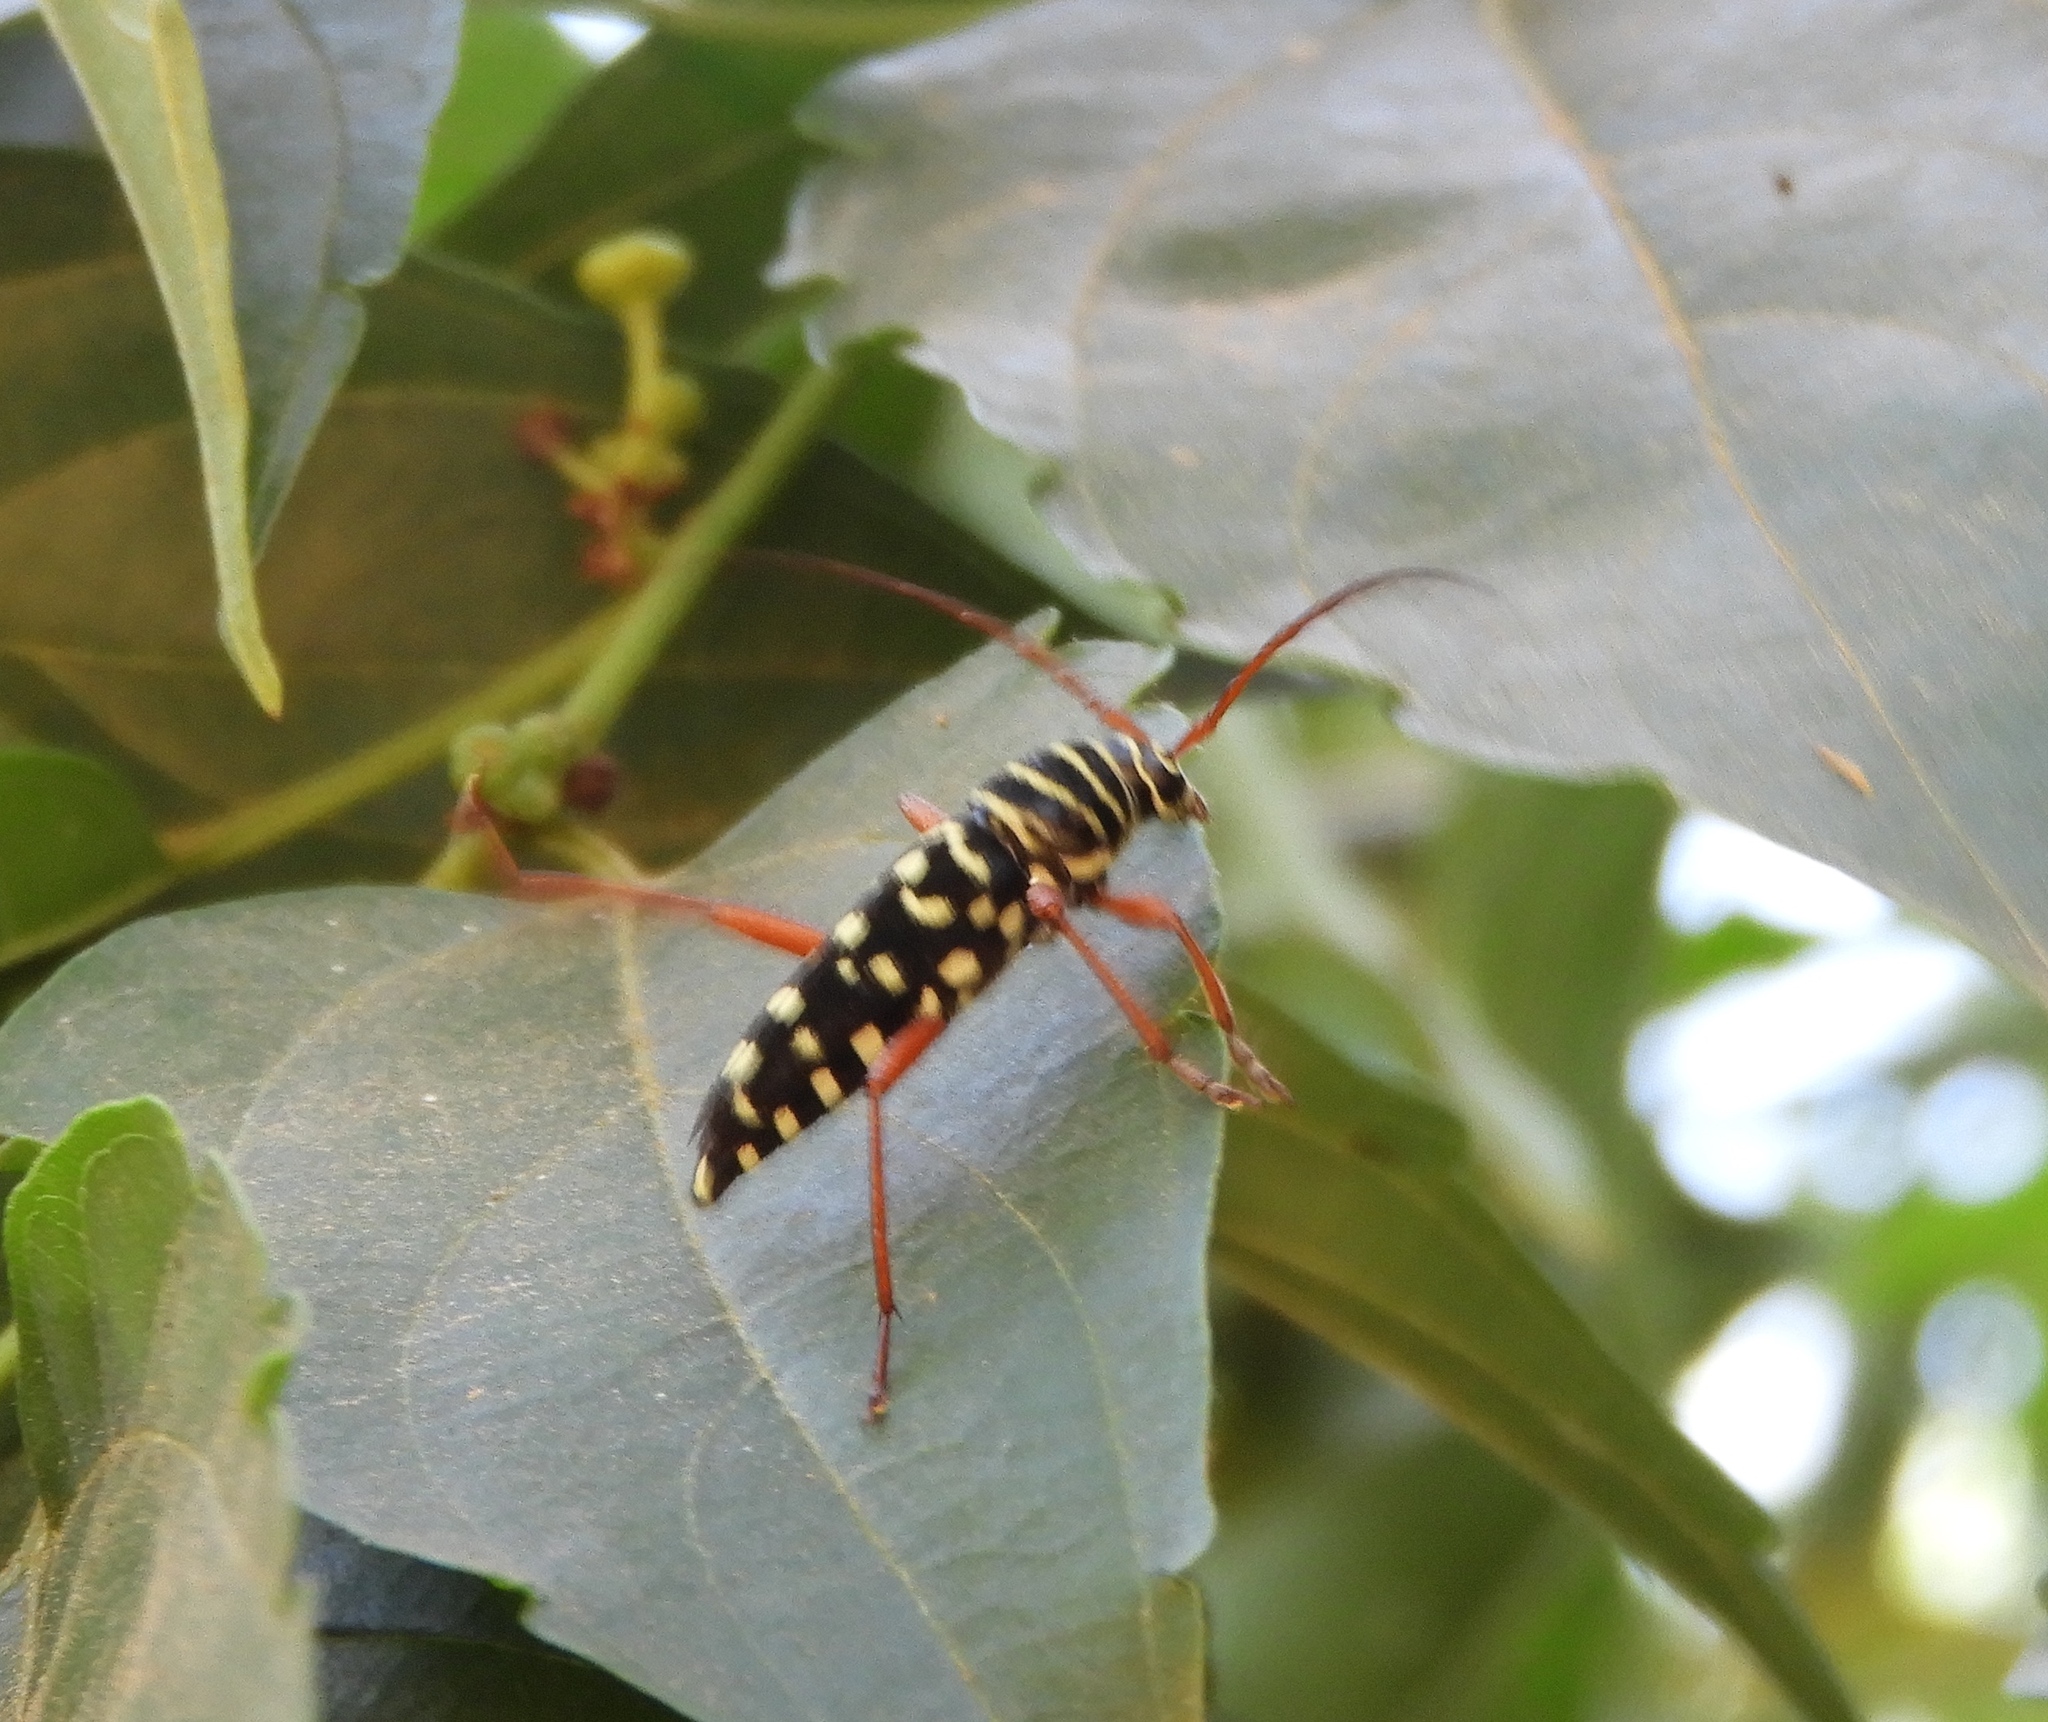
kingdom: Animalia
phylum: Arthropoda
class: Insecta
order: Coleoptera
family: Cerambycidae
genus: Placosternus
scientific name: Placosternus difficilis
